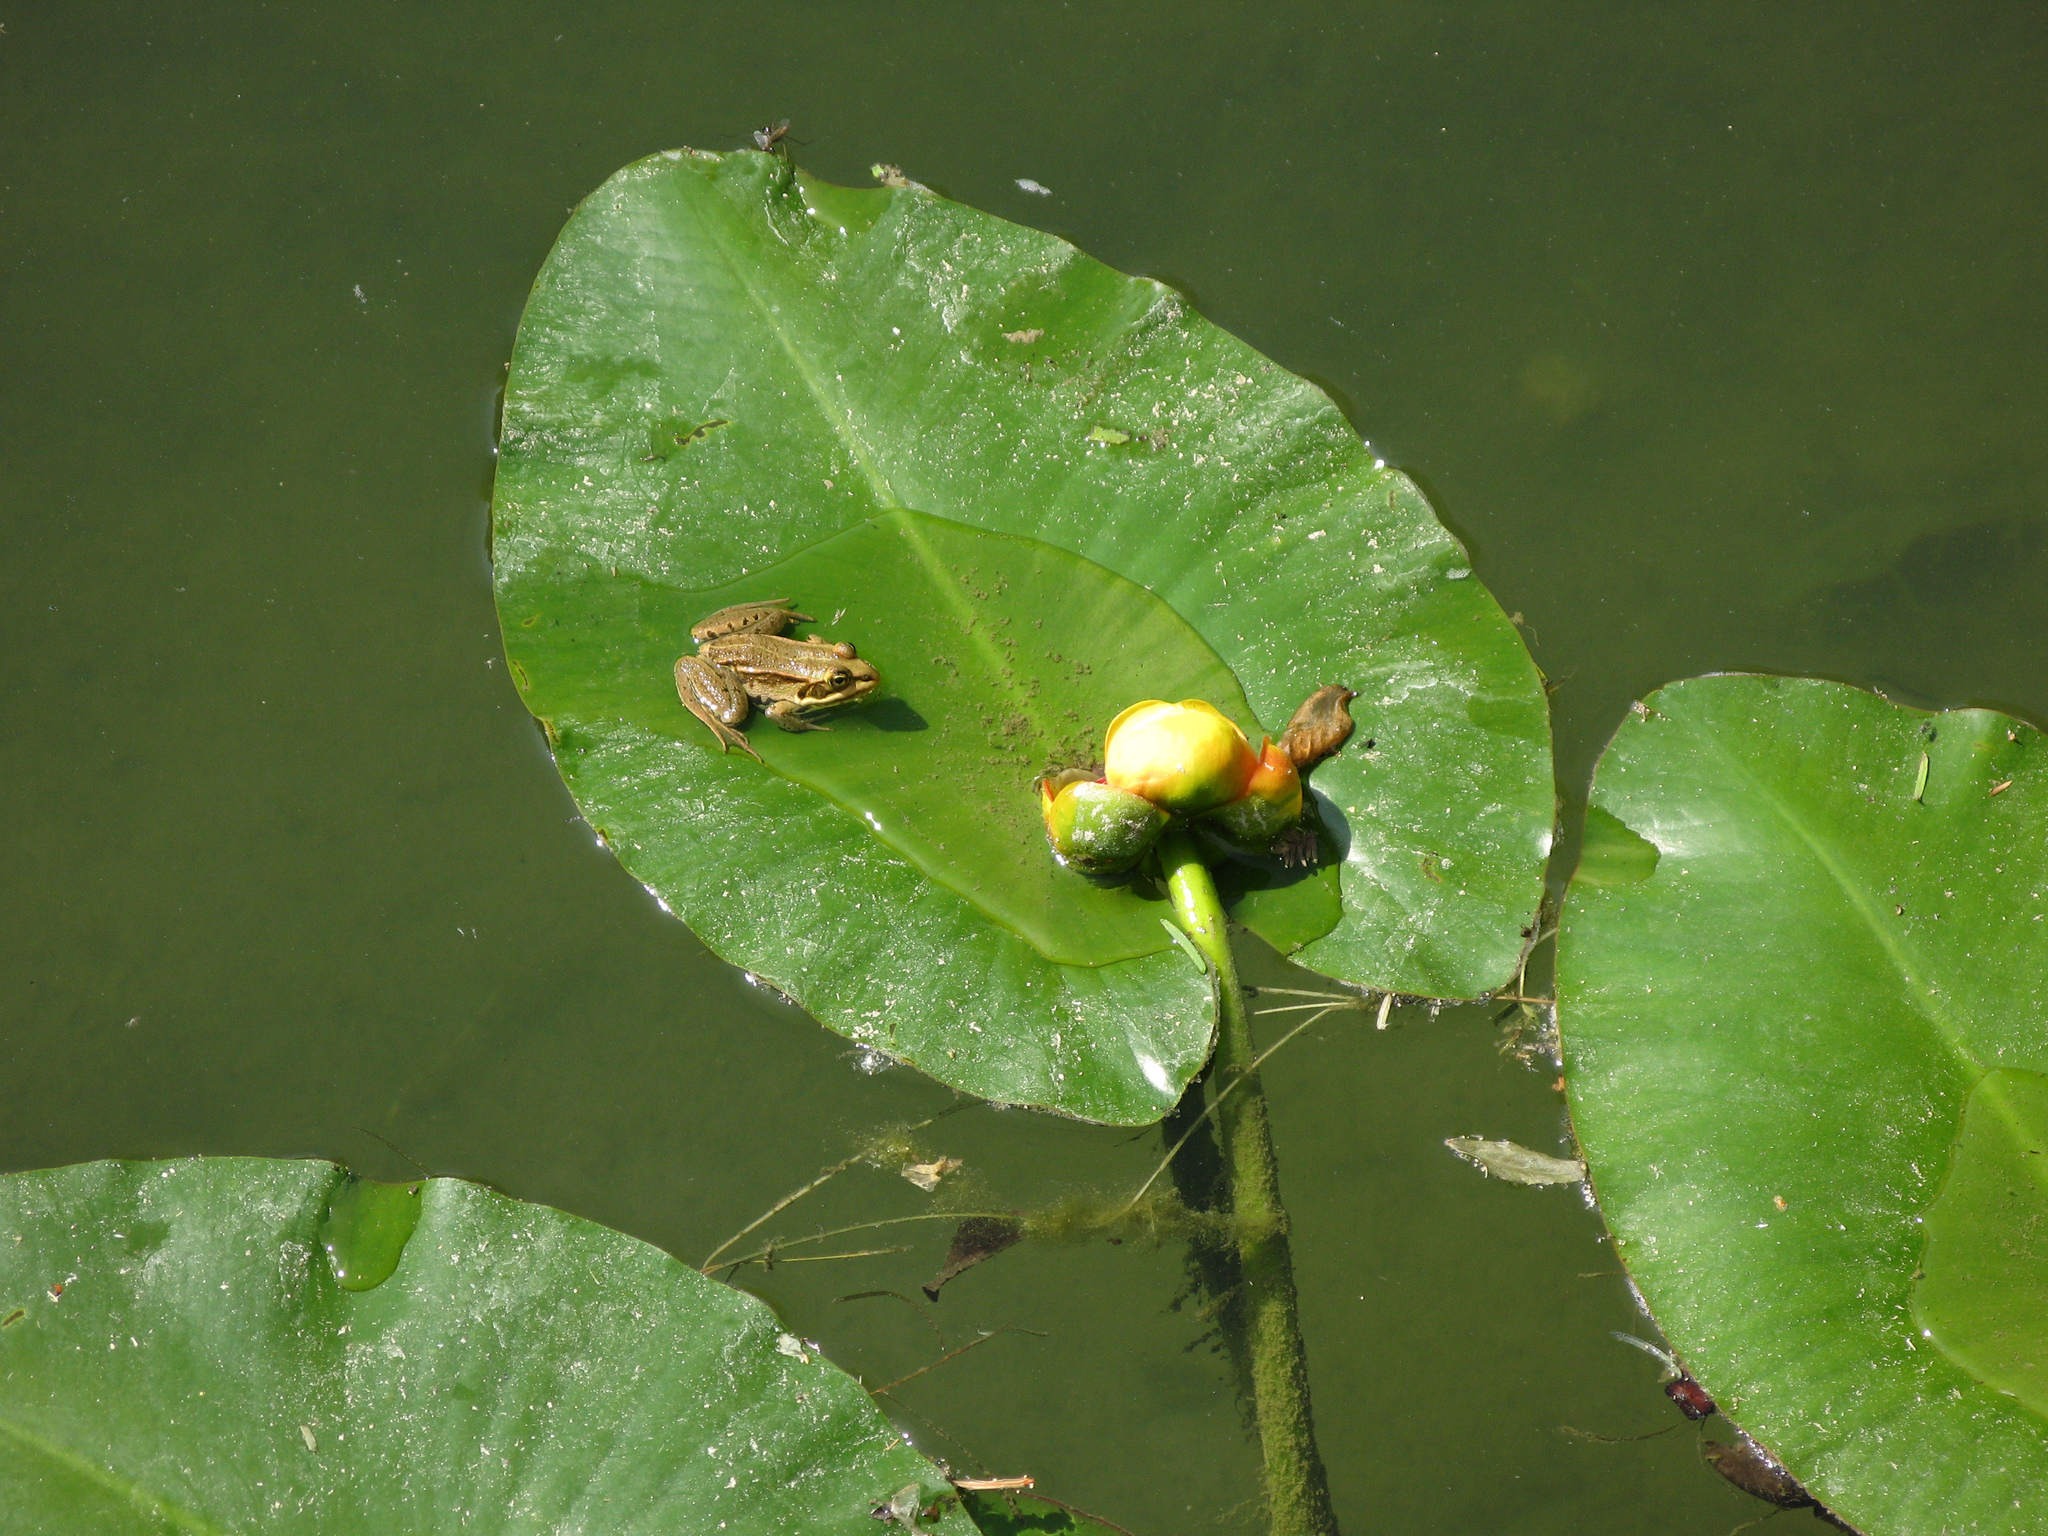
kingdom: Animalia
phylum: Chordata
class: Amphibia
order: Anura
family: Ranidae
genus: Pelophylax
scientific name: Pelophylax
